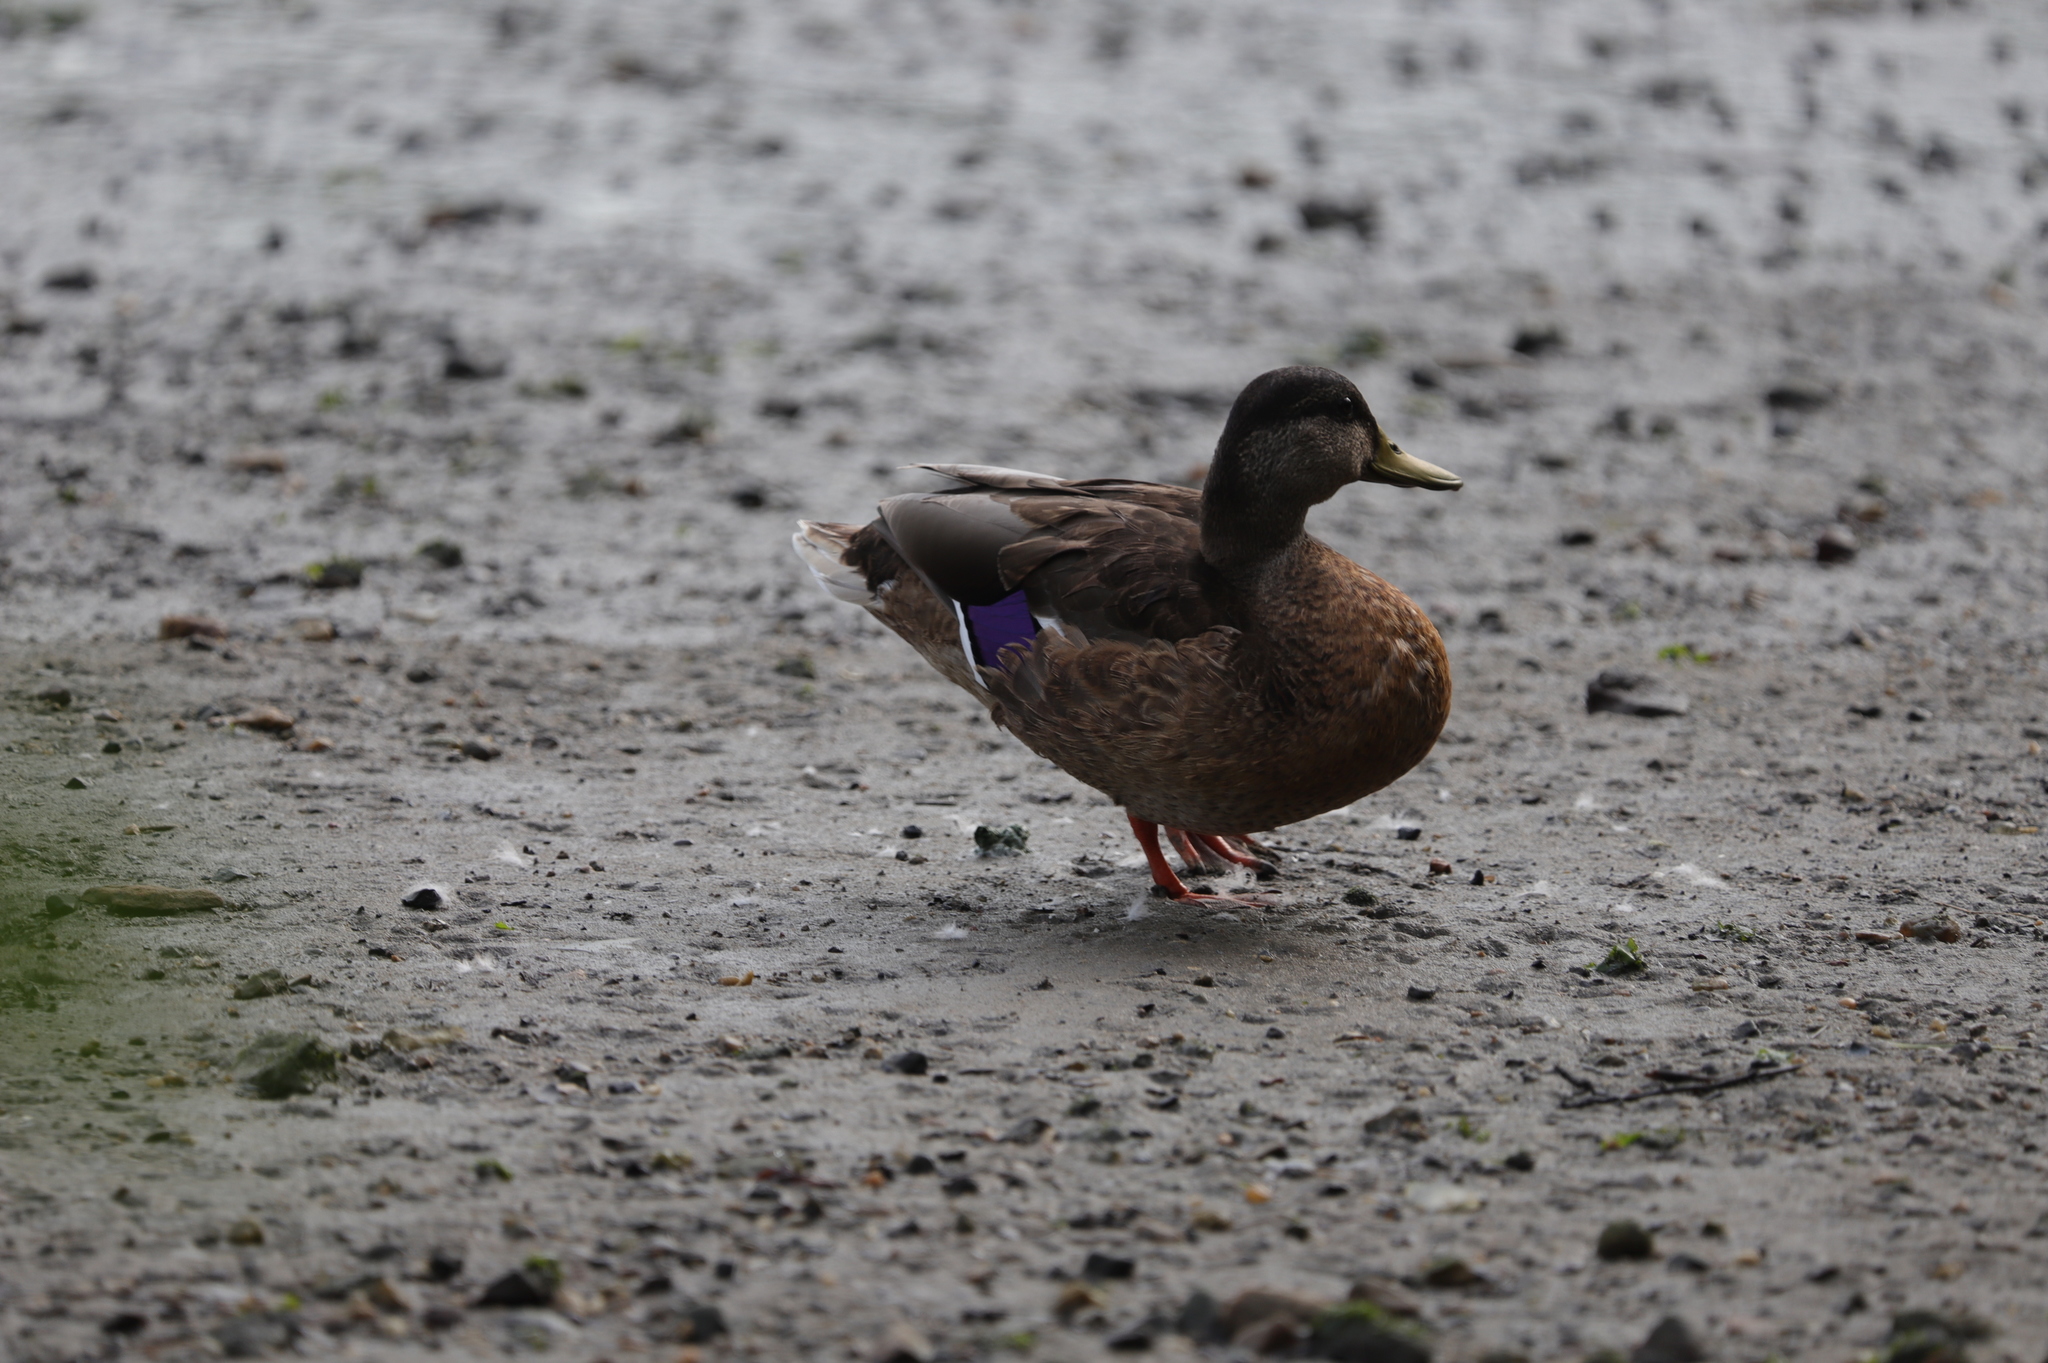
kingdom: Animalia
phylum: Chordata
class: Aves
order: Anseriformes
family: Anatidae
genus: Anas
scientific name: Anas platyrhynchos
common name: Mallard
